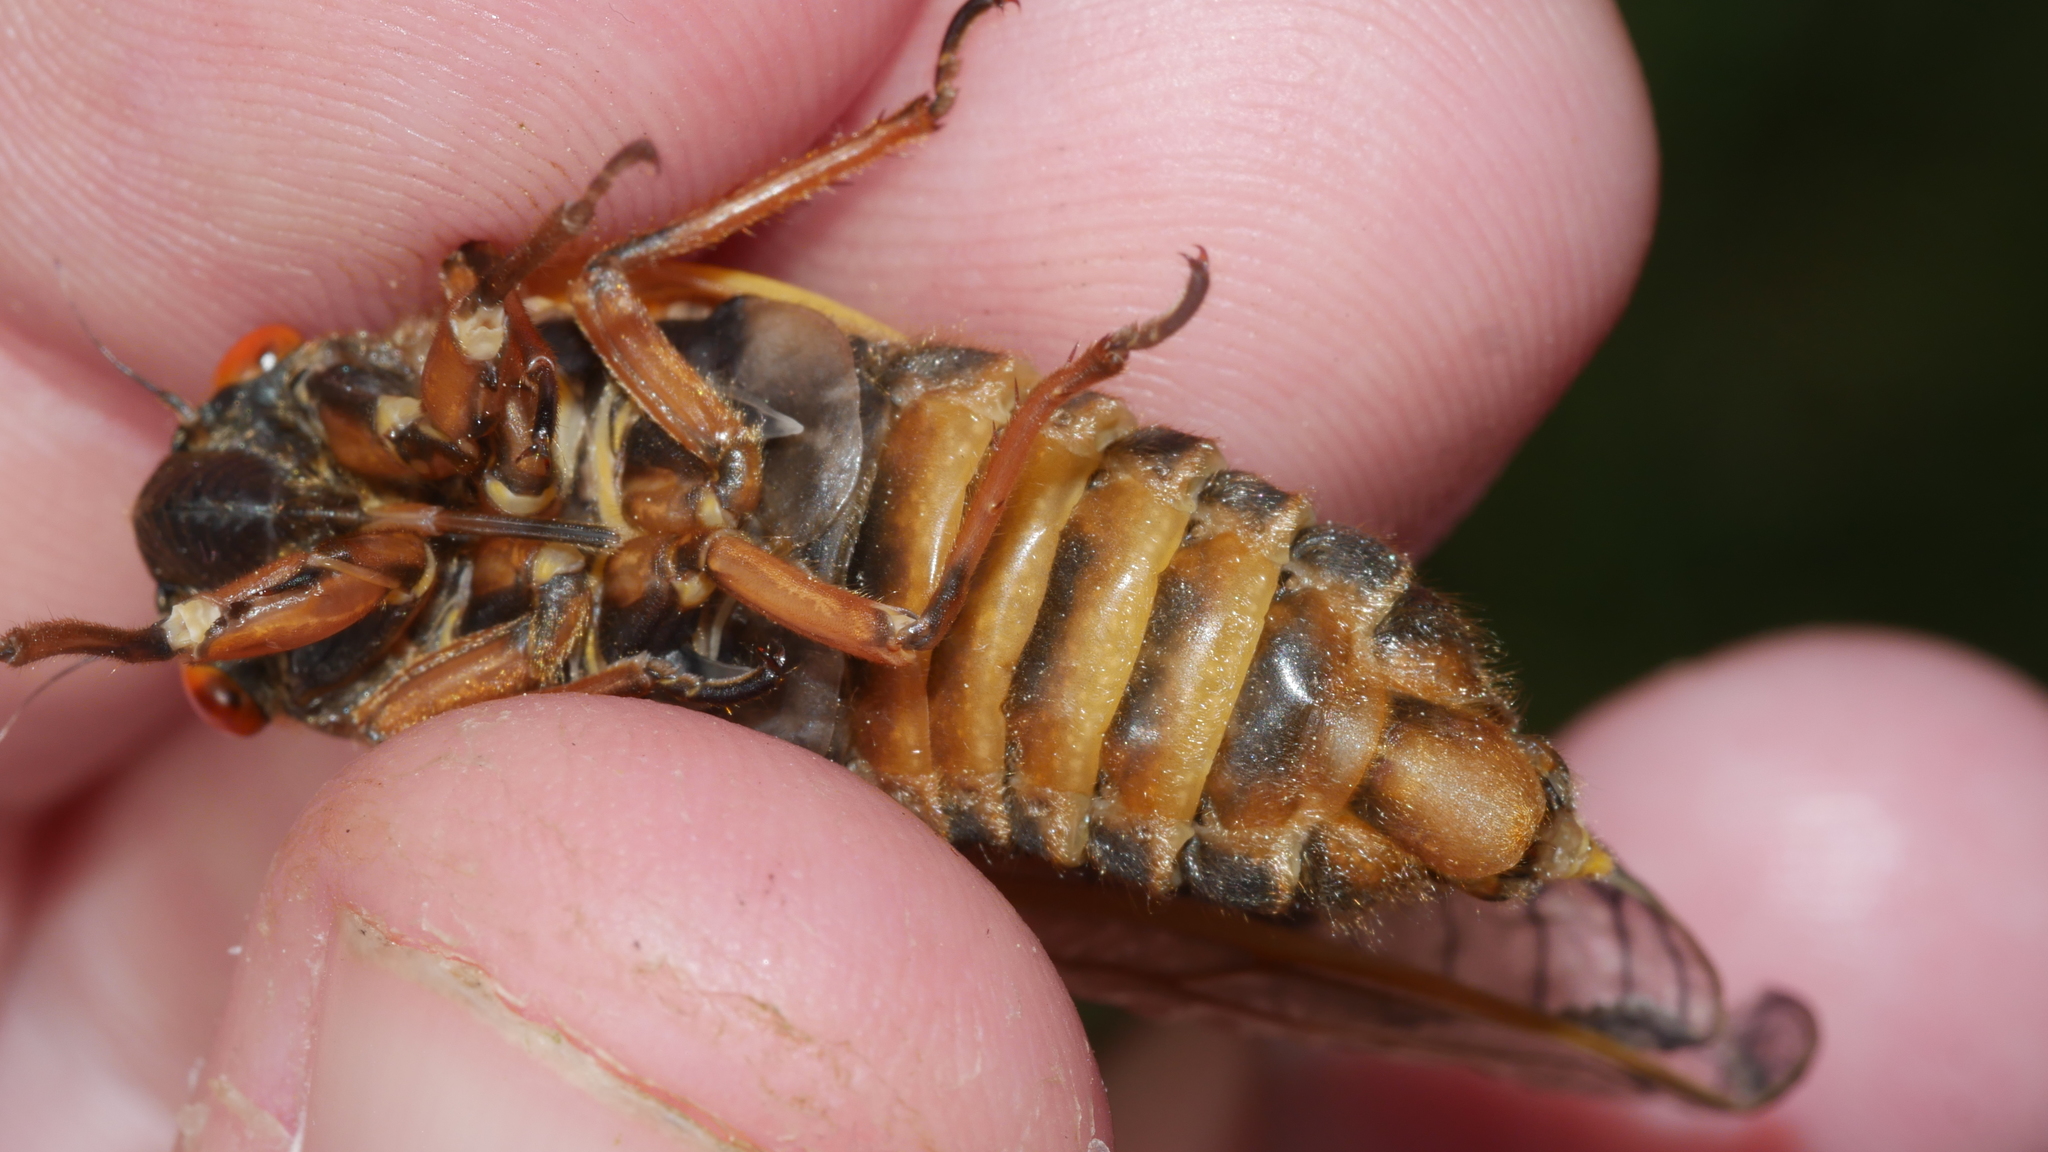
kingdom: Animalia
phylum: Arthropoda
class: Insecta
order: Hemiptera
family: Cicadidae
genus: Magicicada
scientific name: Magicicada septendecim
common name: Periodical cicada
